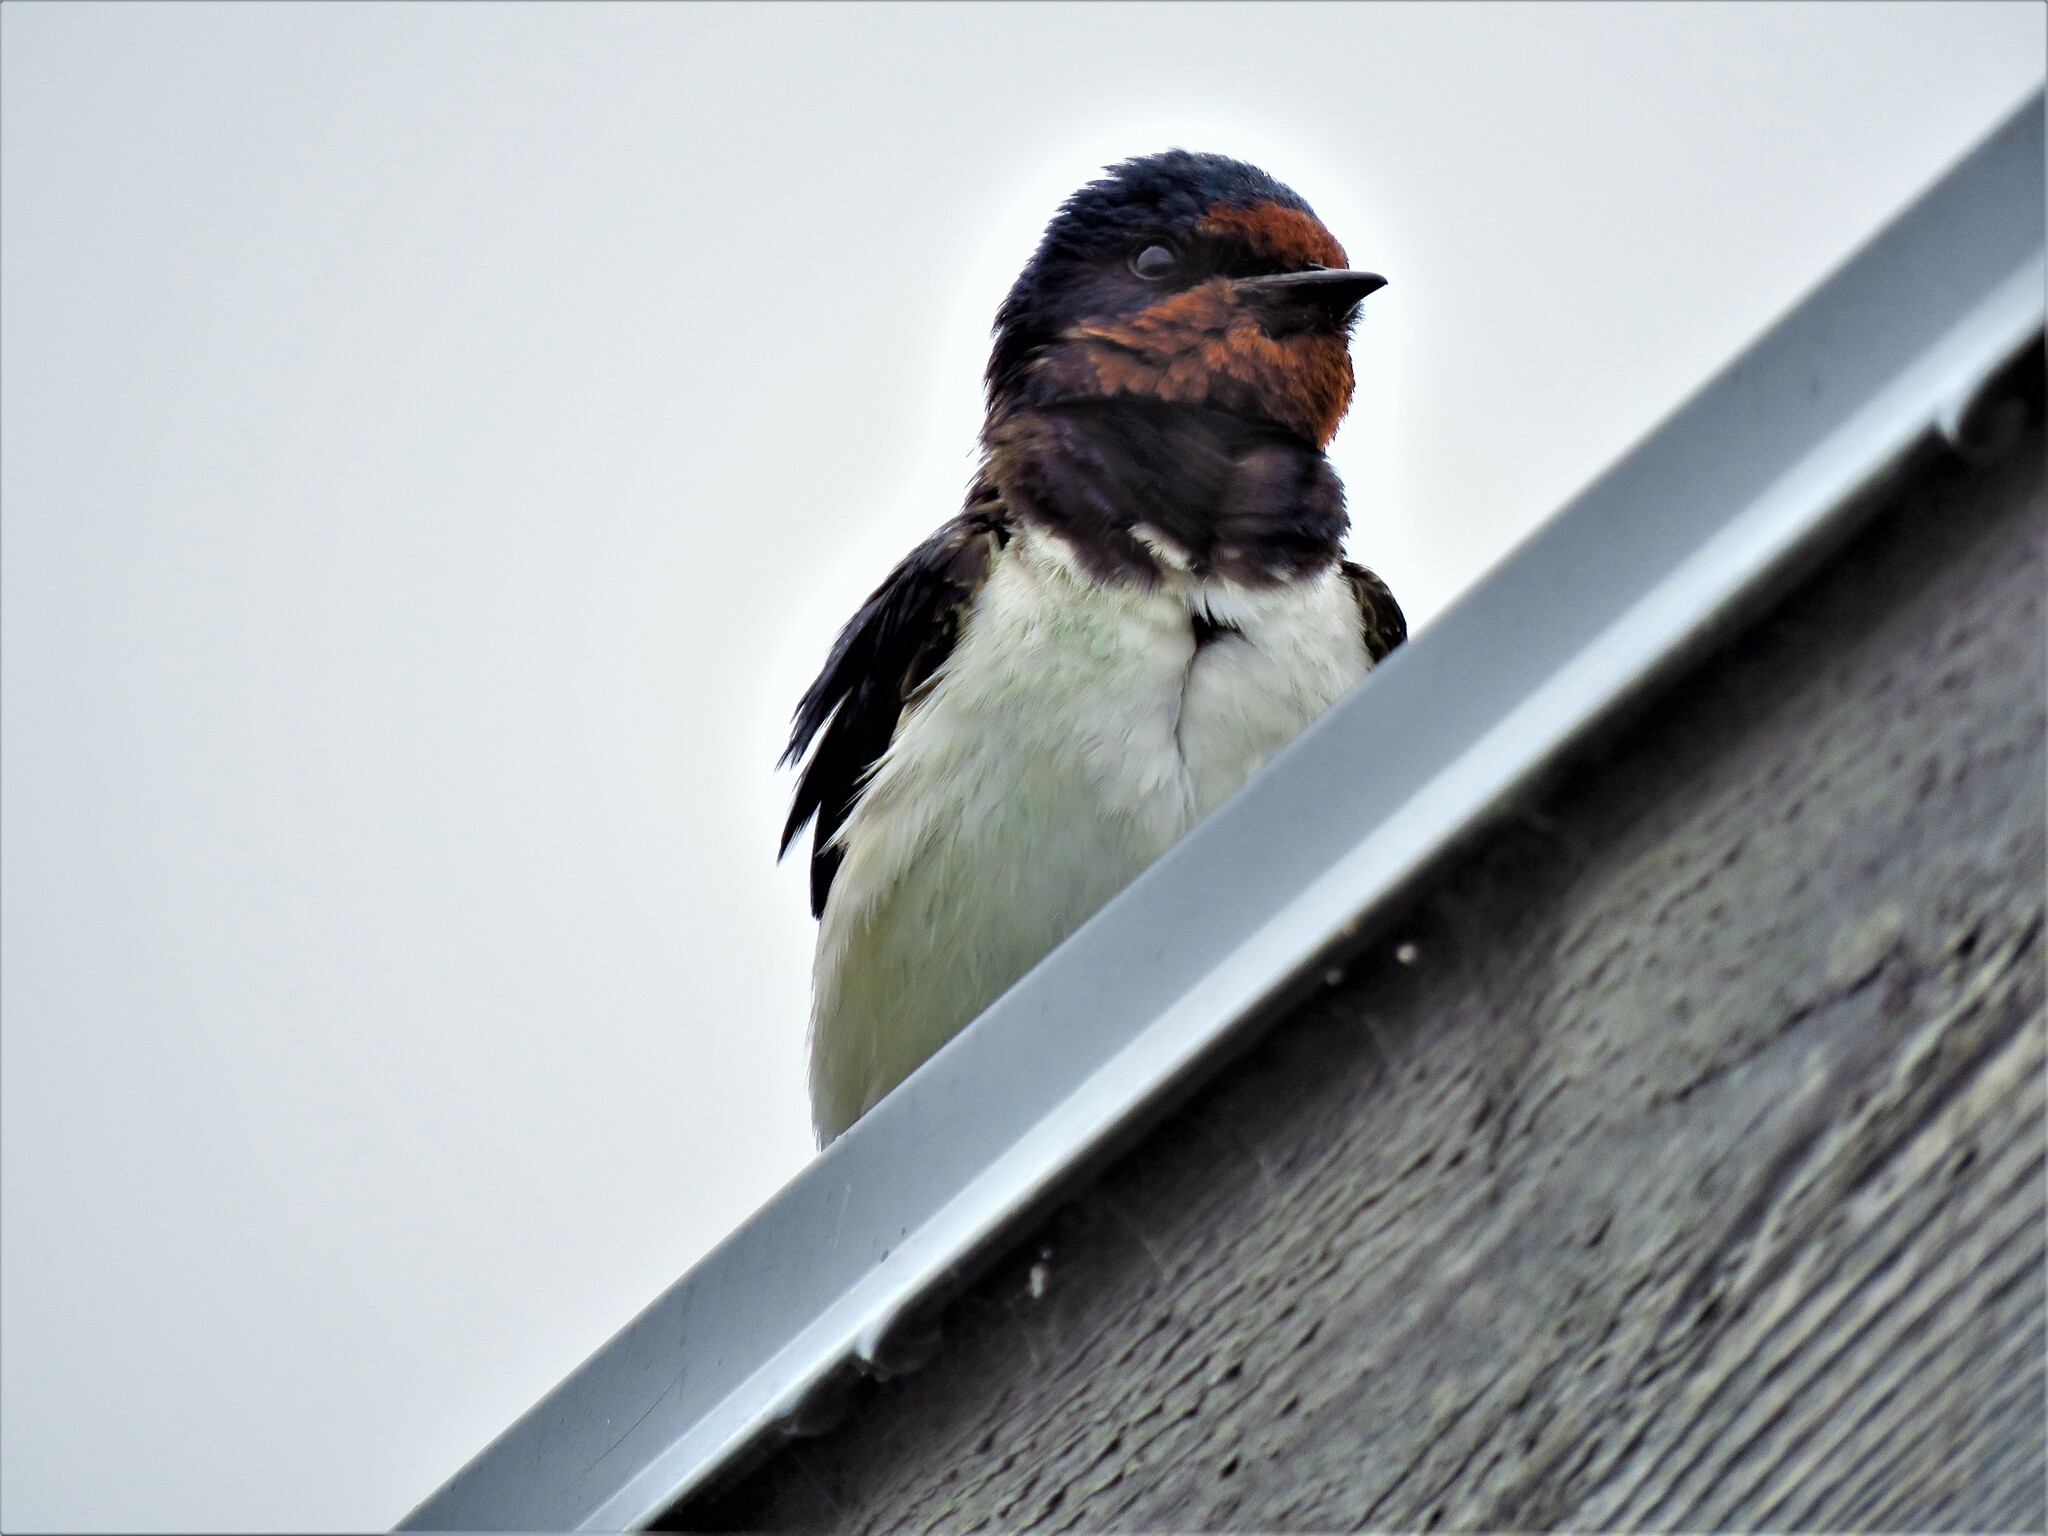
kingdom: Animalia
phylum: Chordata
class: Aves
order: Passeriformes
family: Hirundinidae
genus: Hirundo
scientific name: Hirundo rustica
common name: Barn swallow
